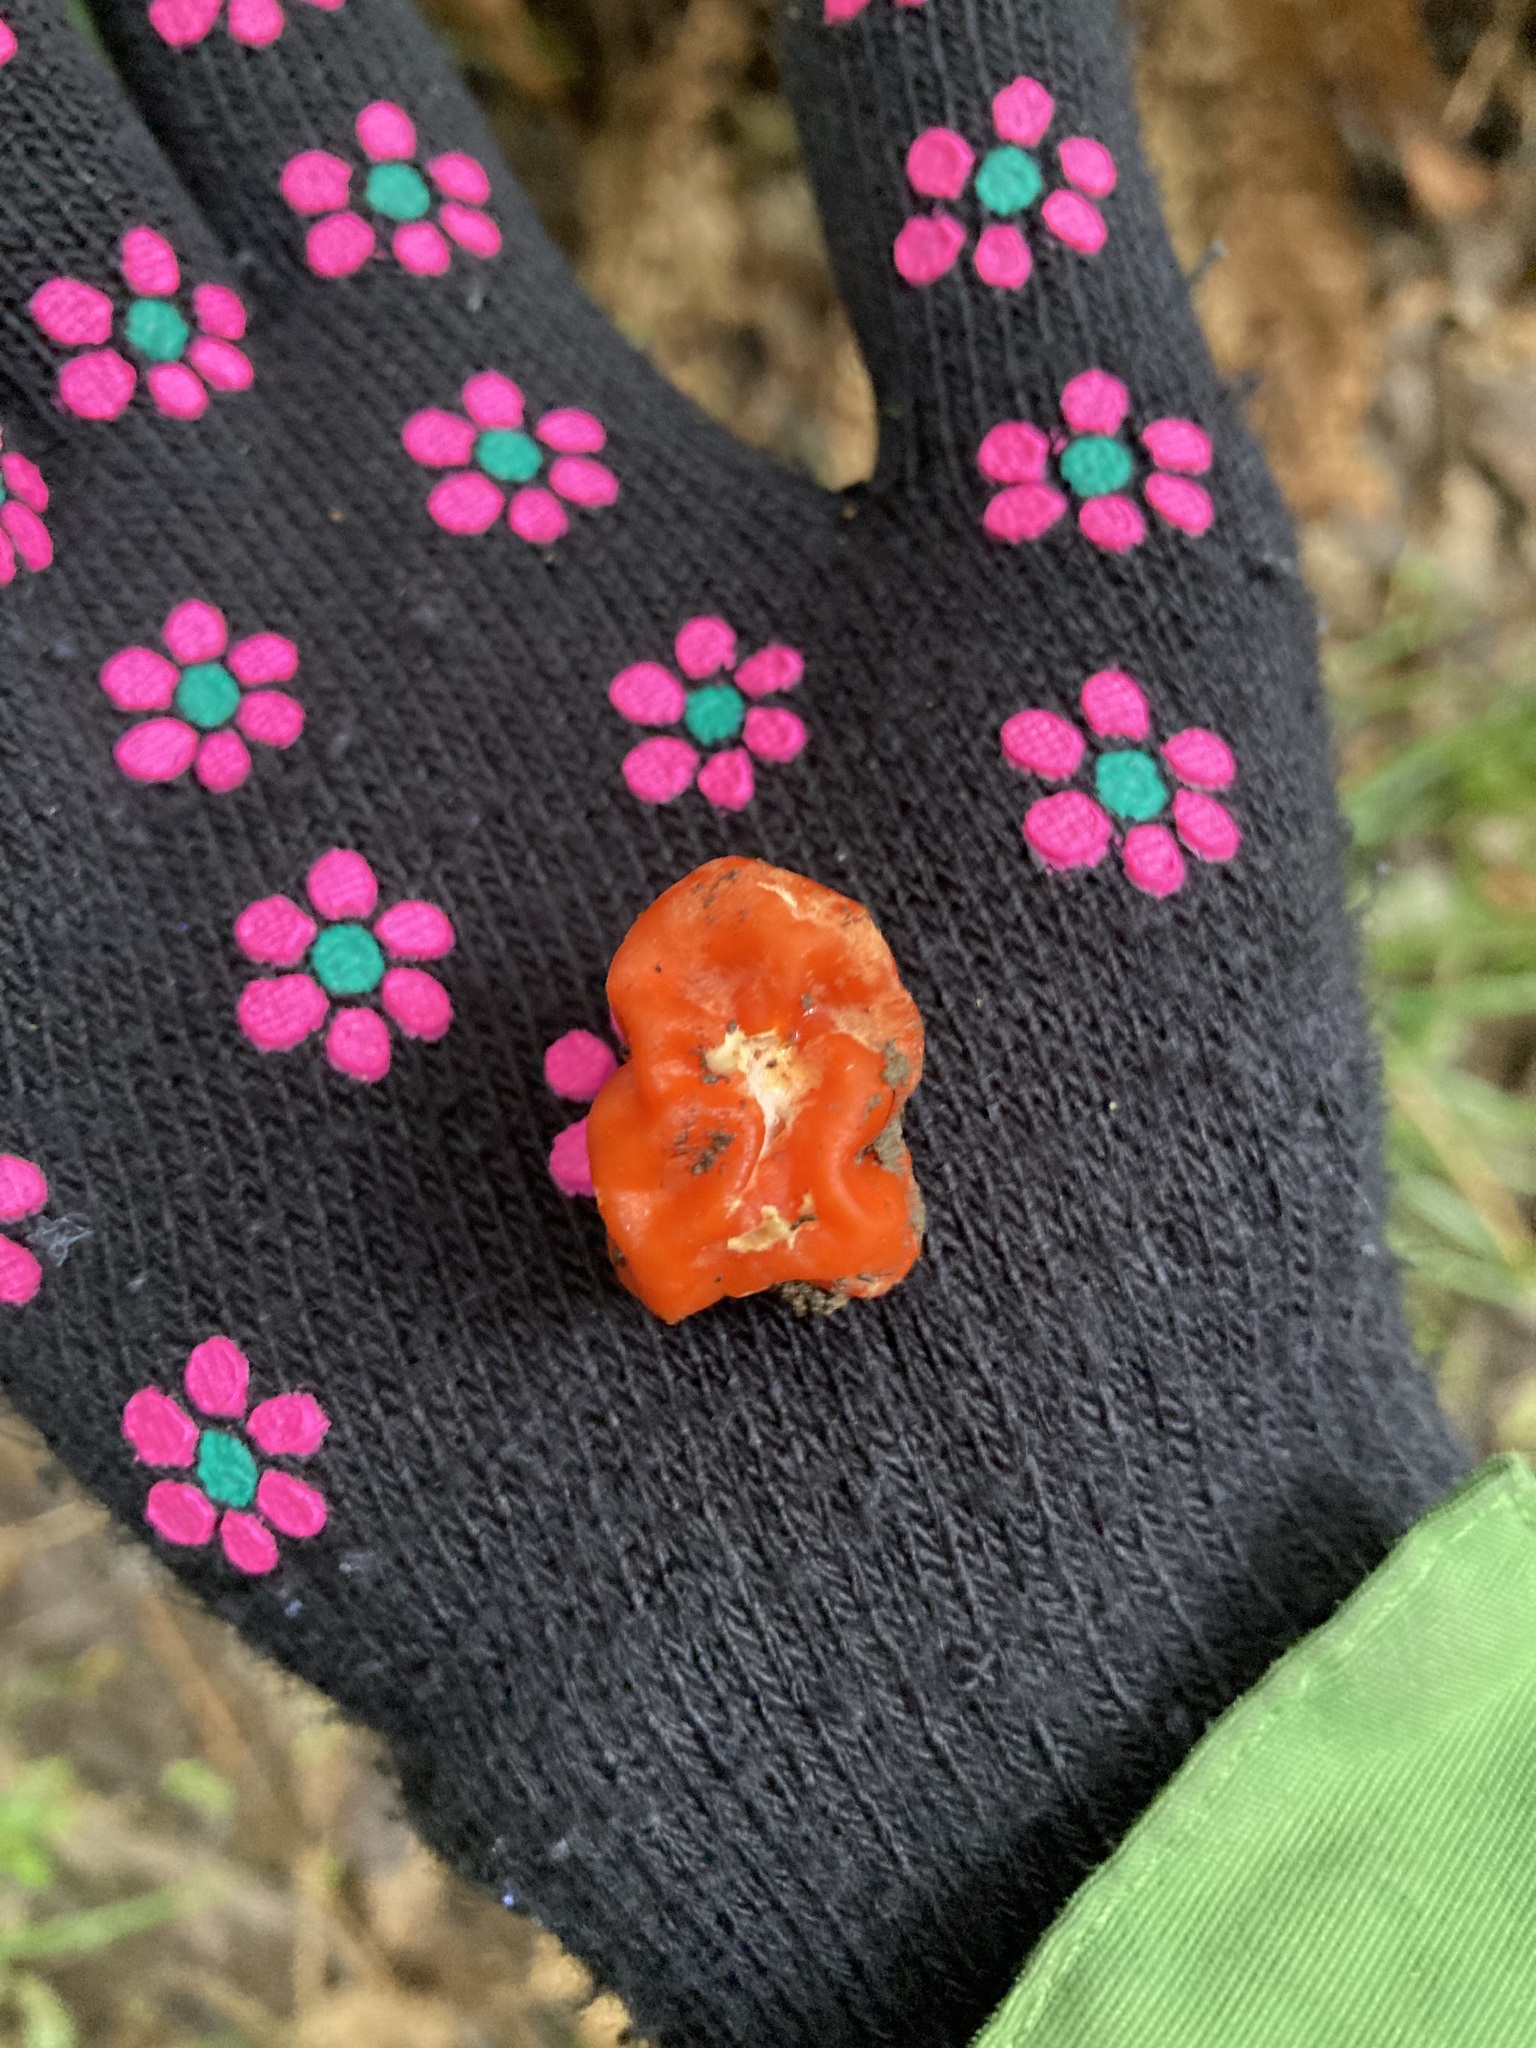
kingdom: Fungi
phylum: Ascomycota
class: Pezizomycetes
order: Pezizales
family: Pyronemataceae
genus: Paurocotylis
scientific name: Paurocotylis pila
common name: Scarlet berry truffle
